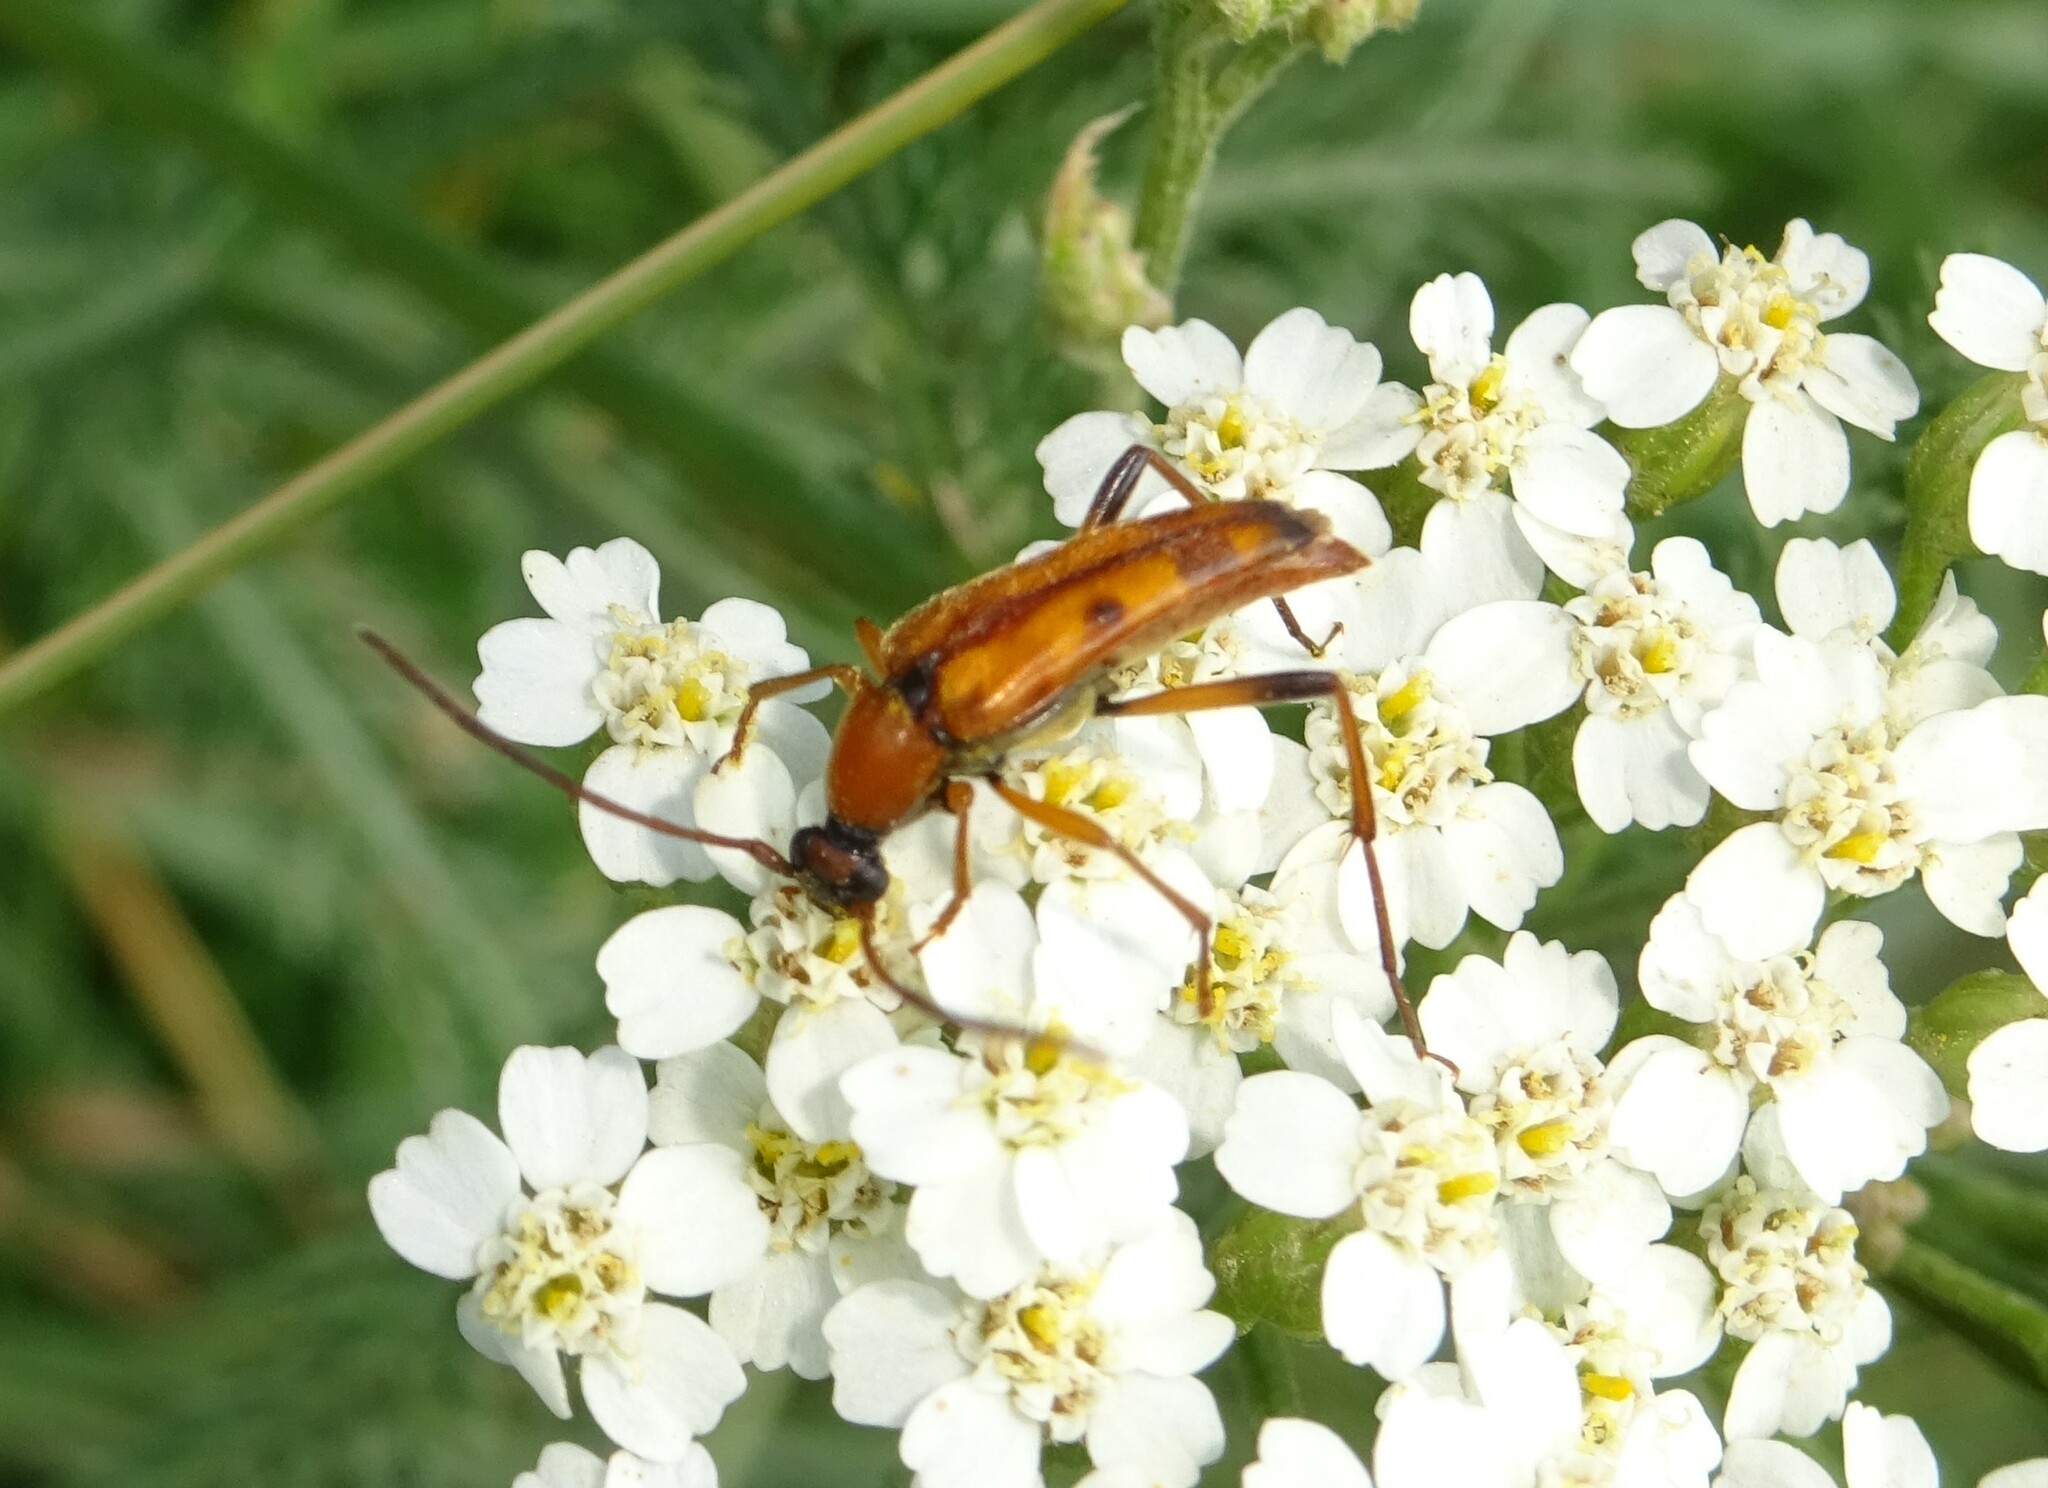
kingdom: Animalia
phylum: Arthropoda
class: Insecta
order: Coleoptera
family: Cerambycidae
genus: Stenurella
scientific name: Stenurella septempunctata
